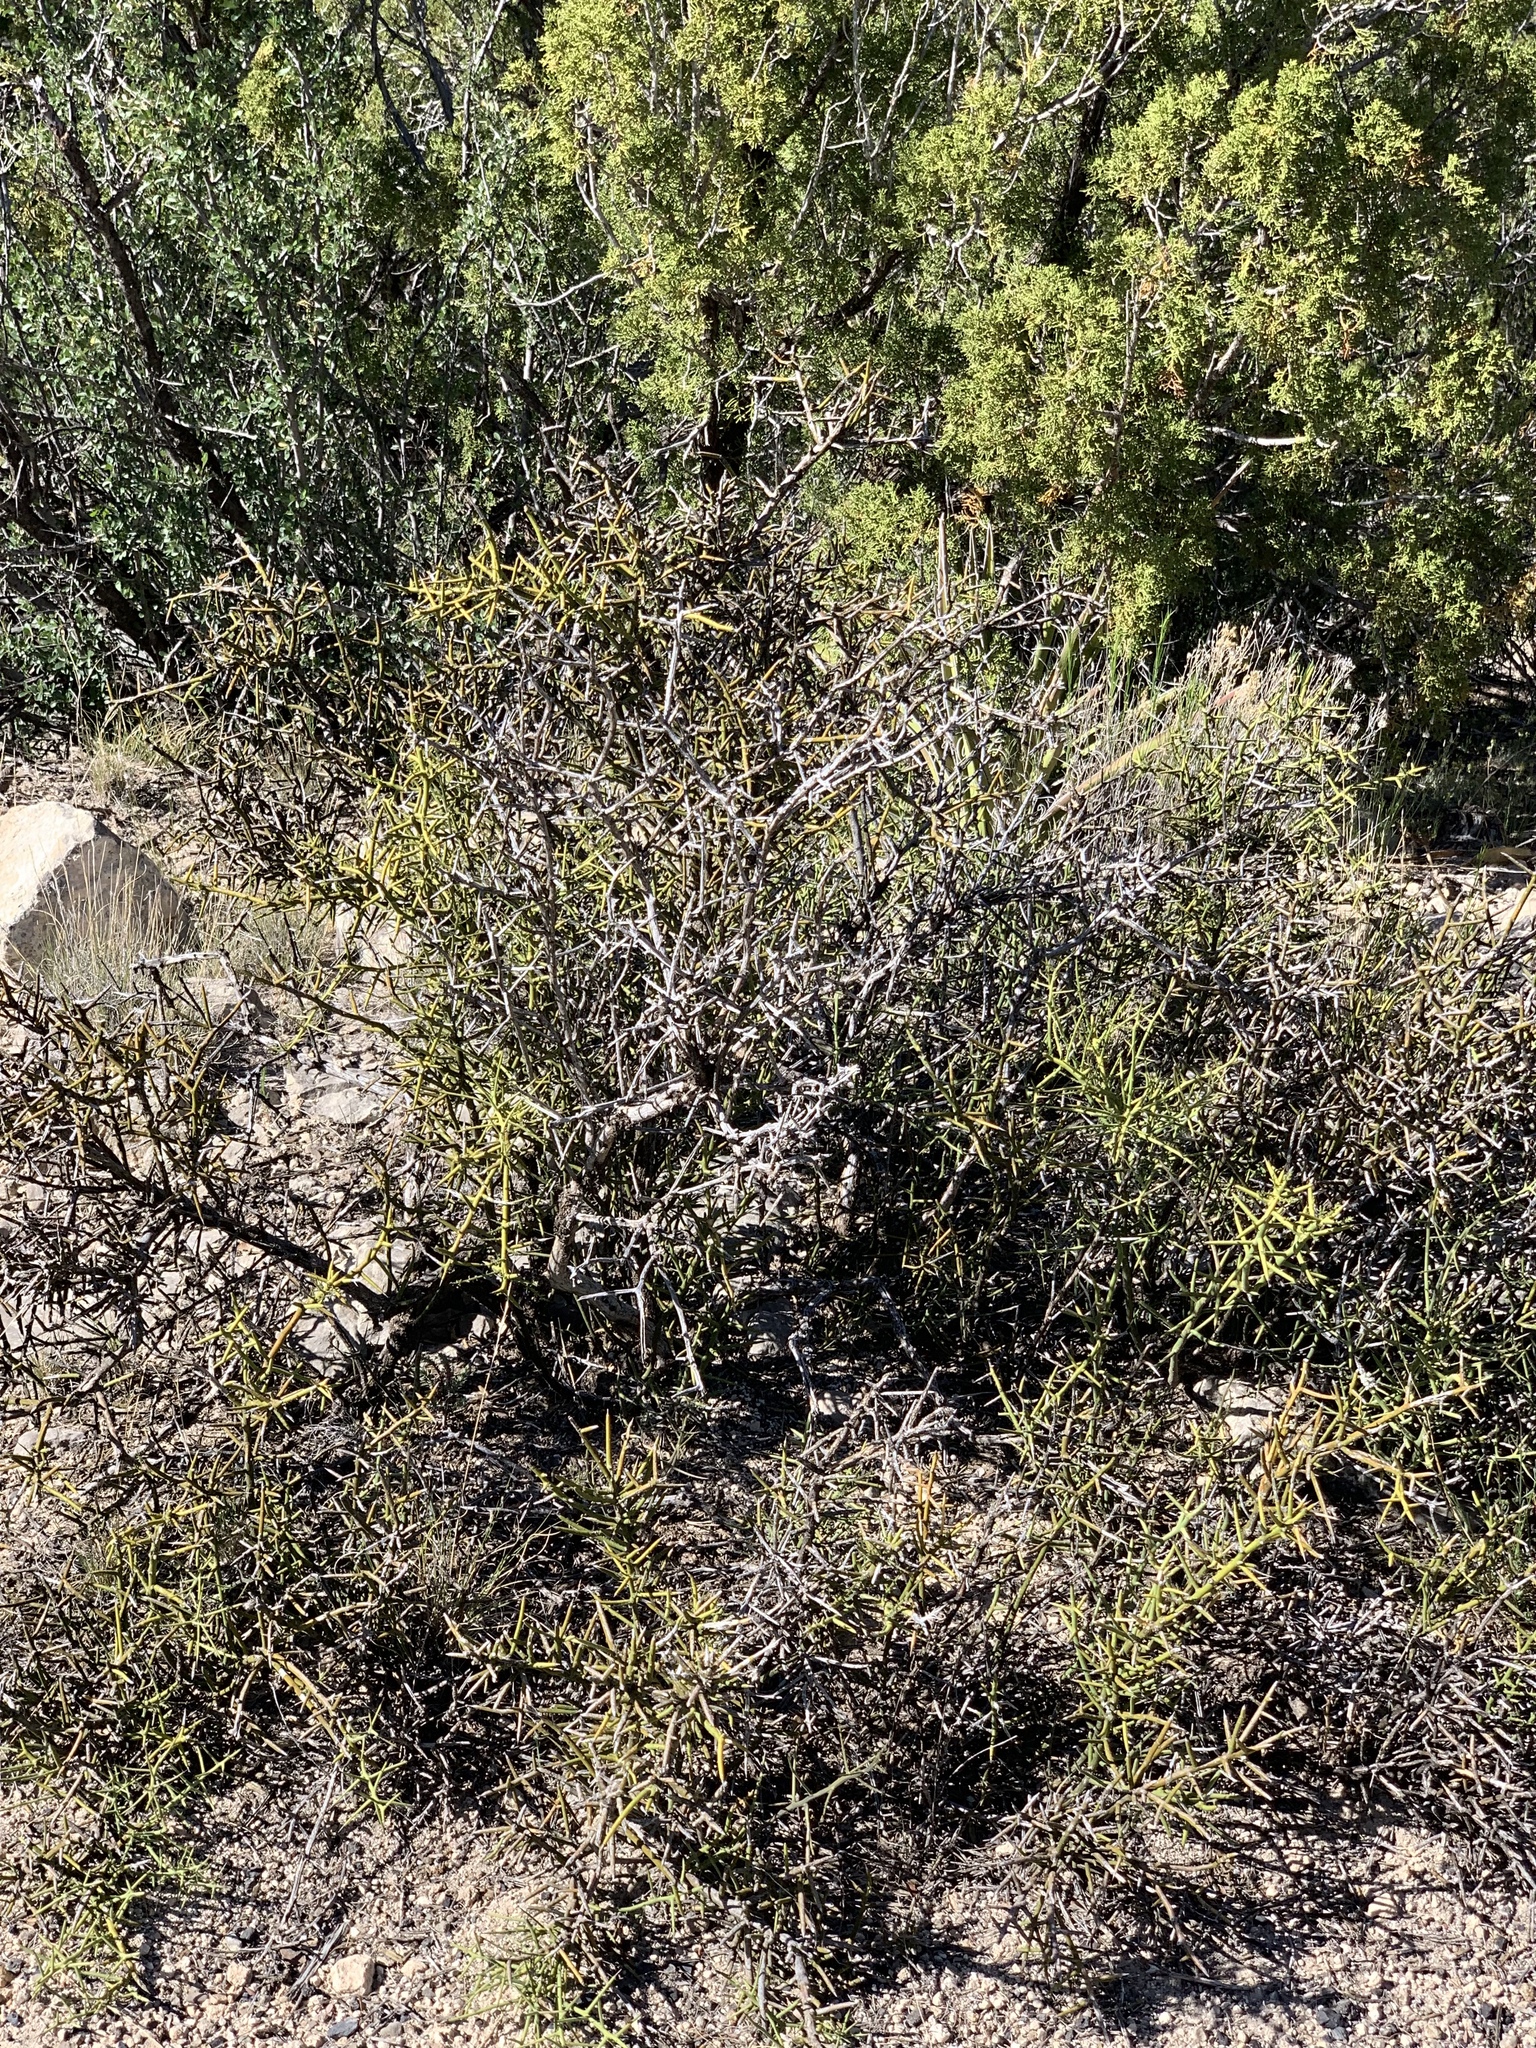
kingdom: Plantae
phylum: Tracheophyta
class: Magnoliopsida
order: Brassicales
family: Koeberliniaceae
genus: Koeberlinia
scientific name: Koeberlinia spinosa
